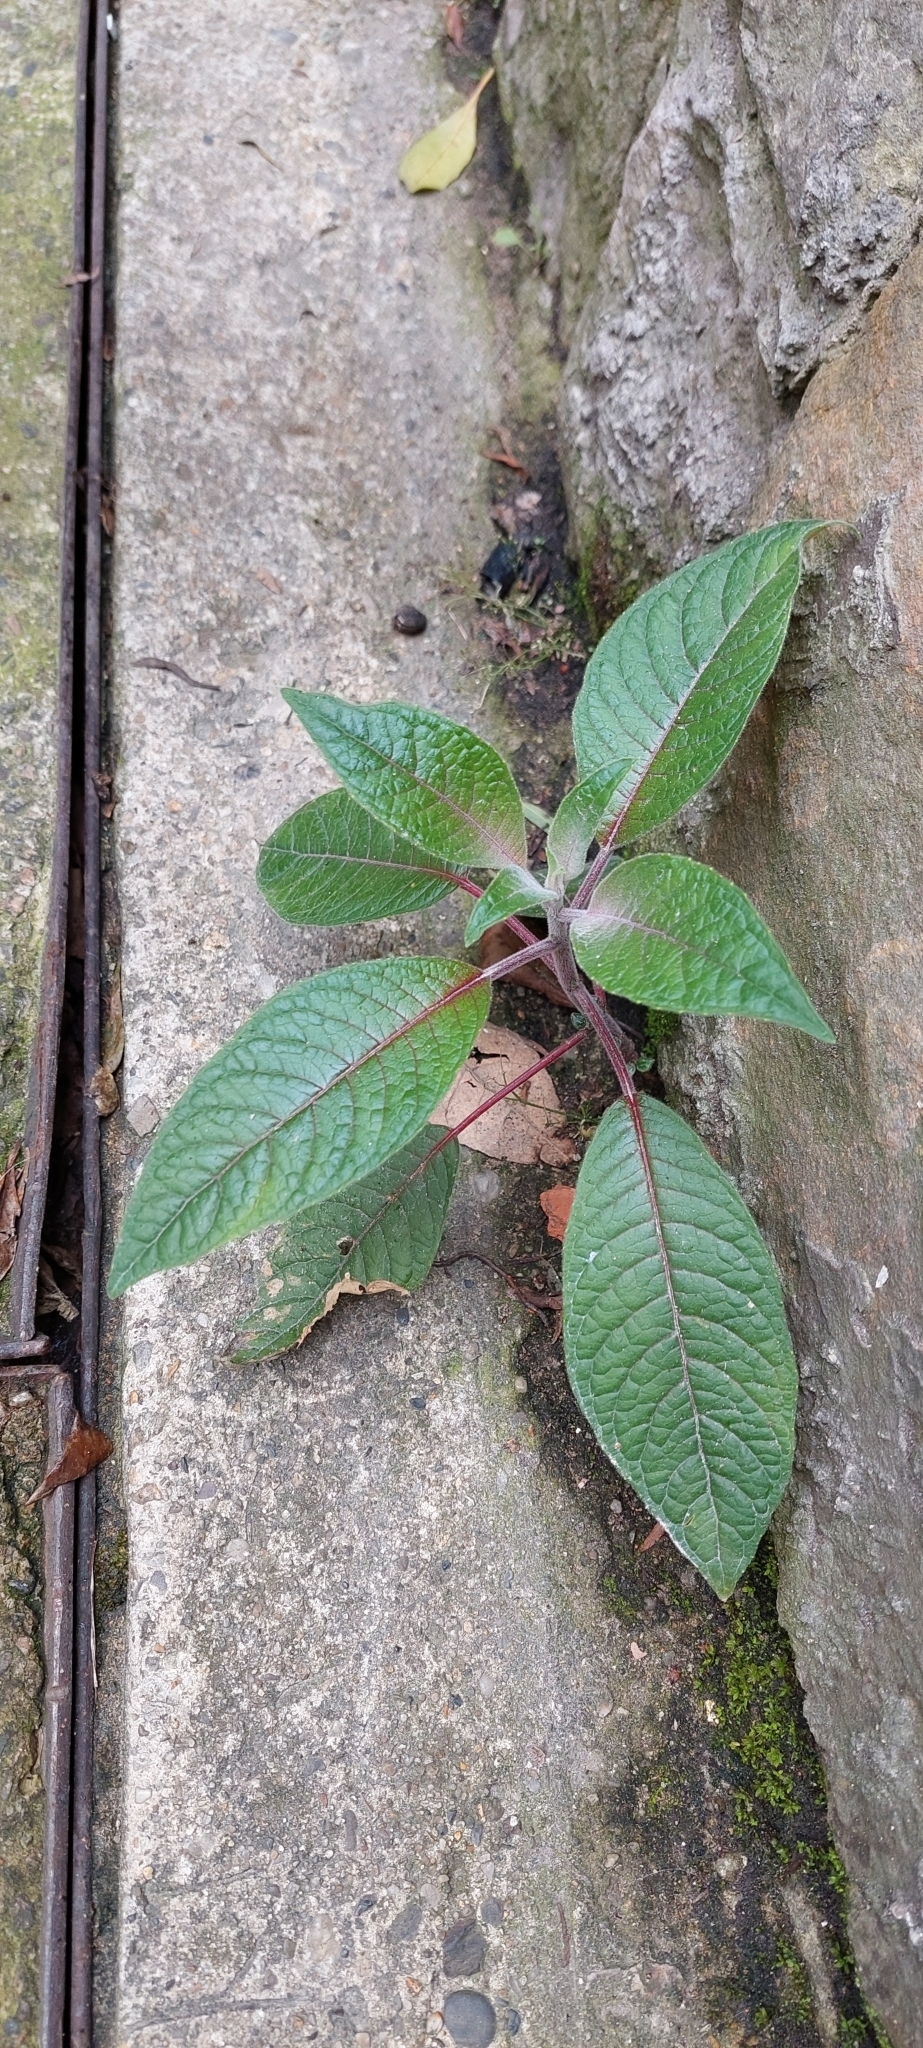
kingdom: Plantae
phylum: Tracheophyta
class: Magnoliopsida
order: Myrtales
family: Onagraceae
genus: Fuchsia
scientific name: Fuchsia boliviana
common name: Bolivian fuchsia
